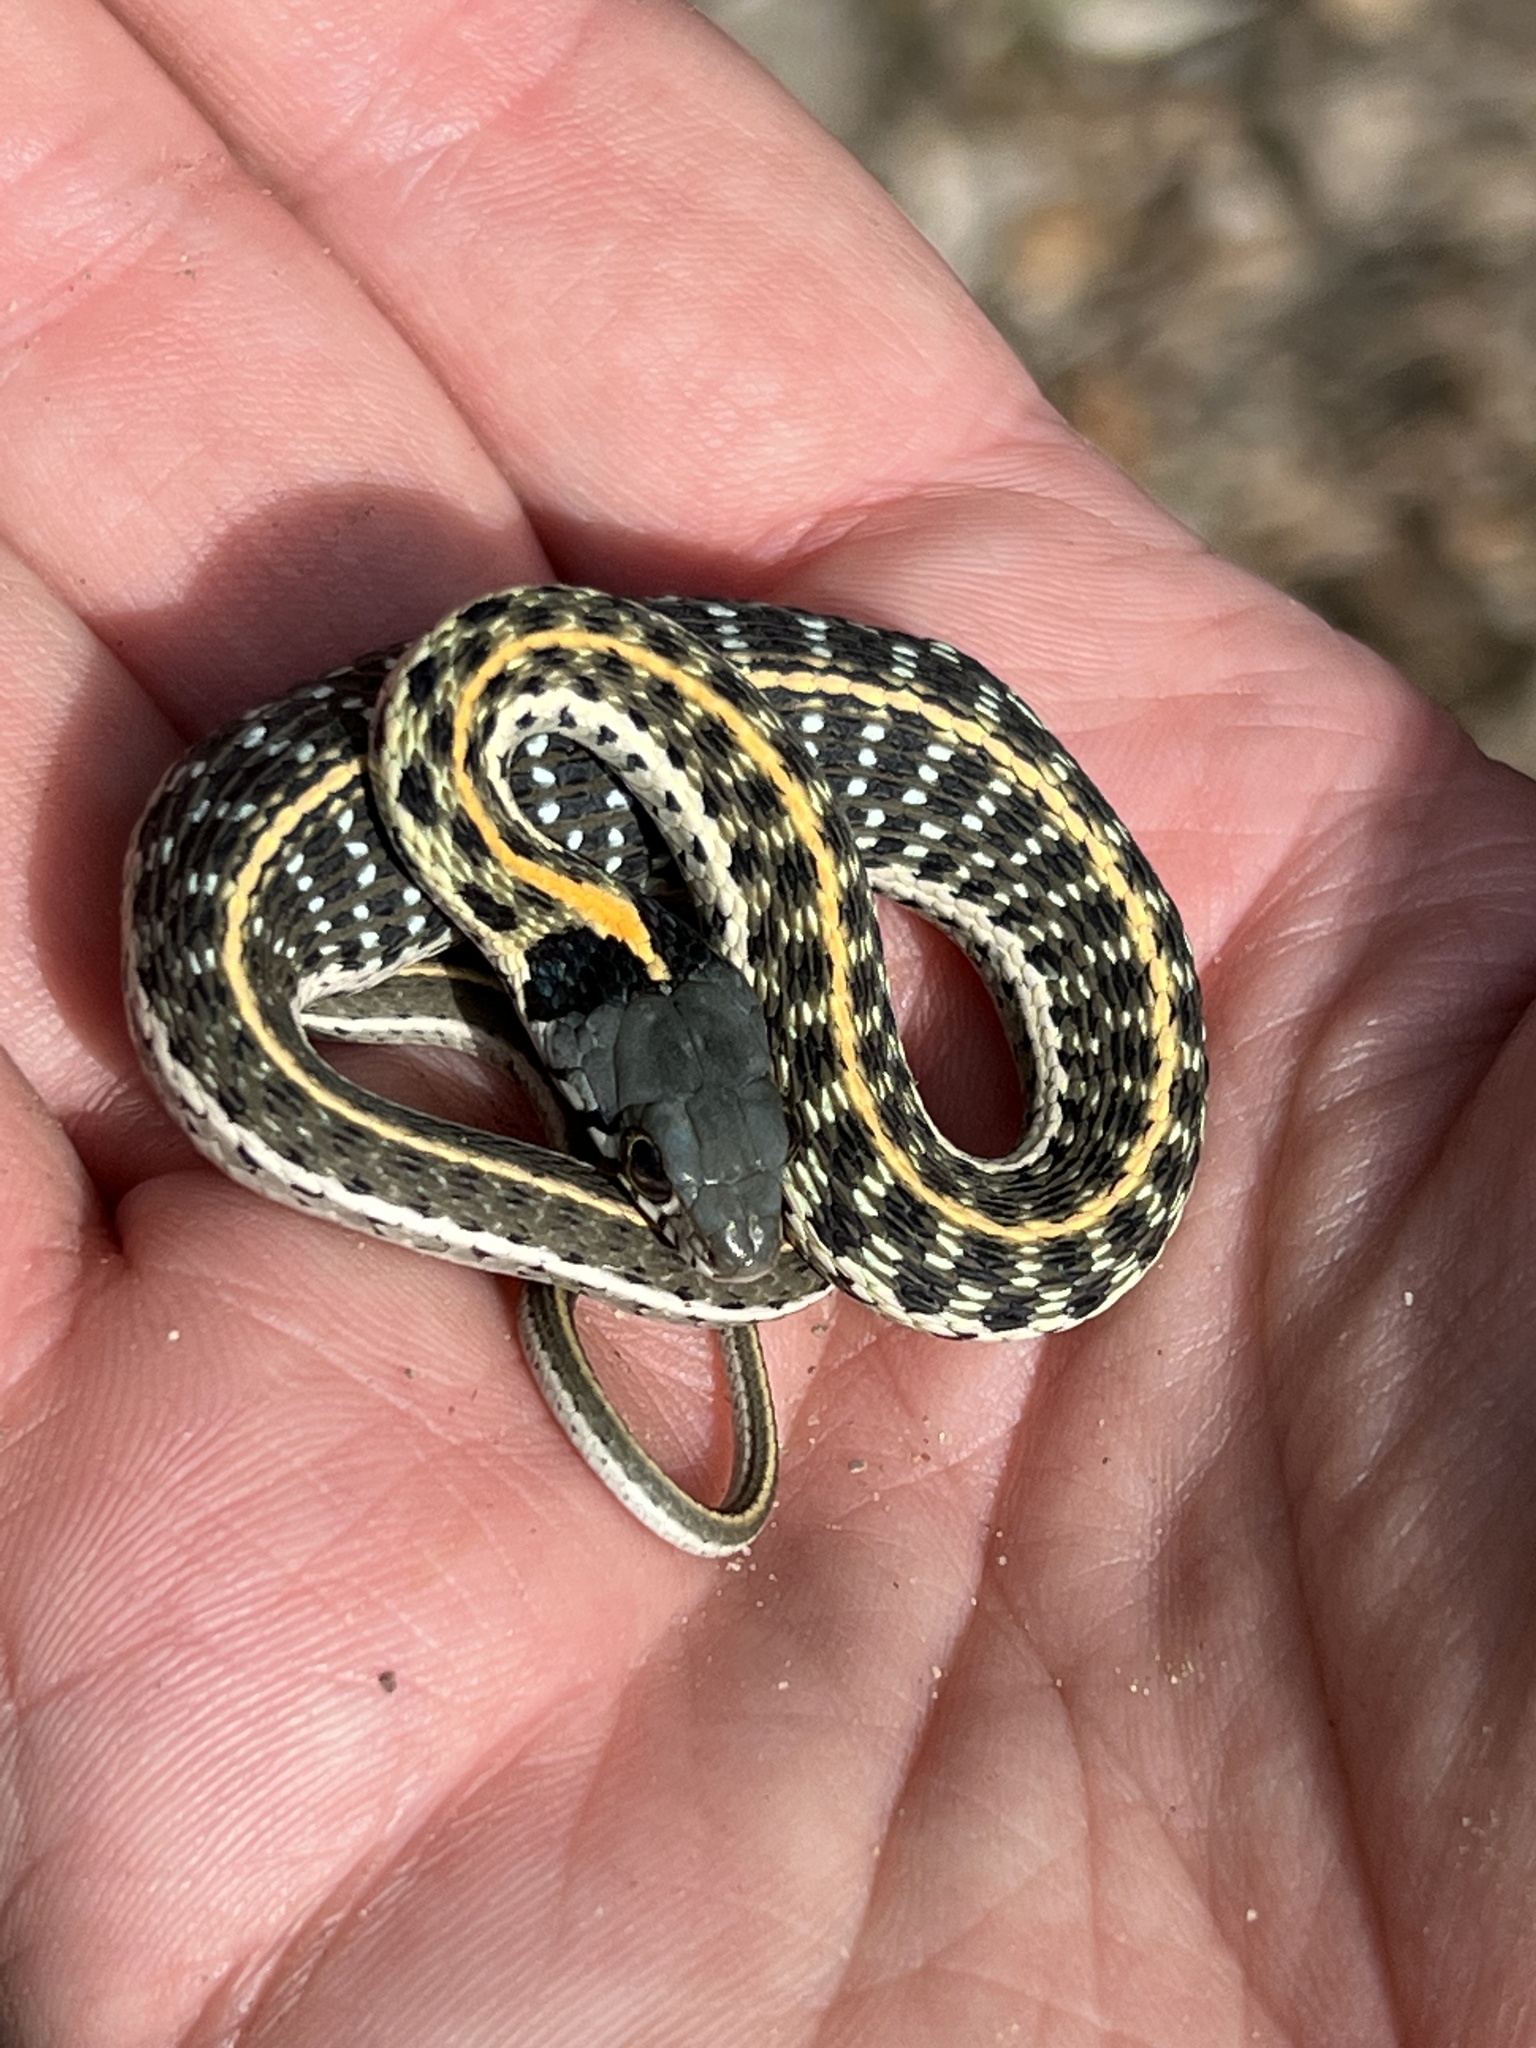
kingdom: Animalia
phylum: Chordata
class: Squamata
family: Colubridae
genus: Thamnophis
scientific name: Thamnophis cyrtopsis
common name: Black-necked gartersnake
